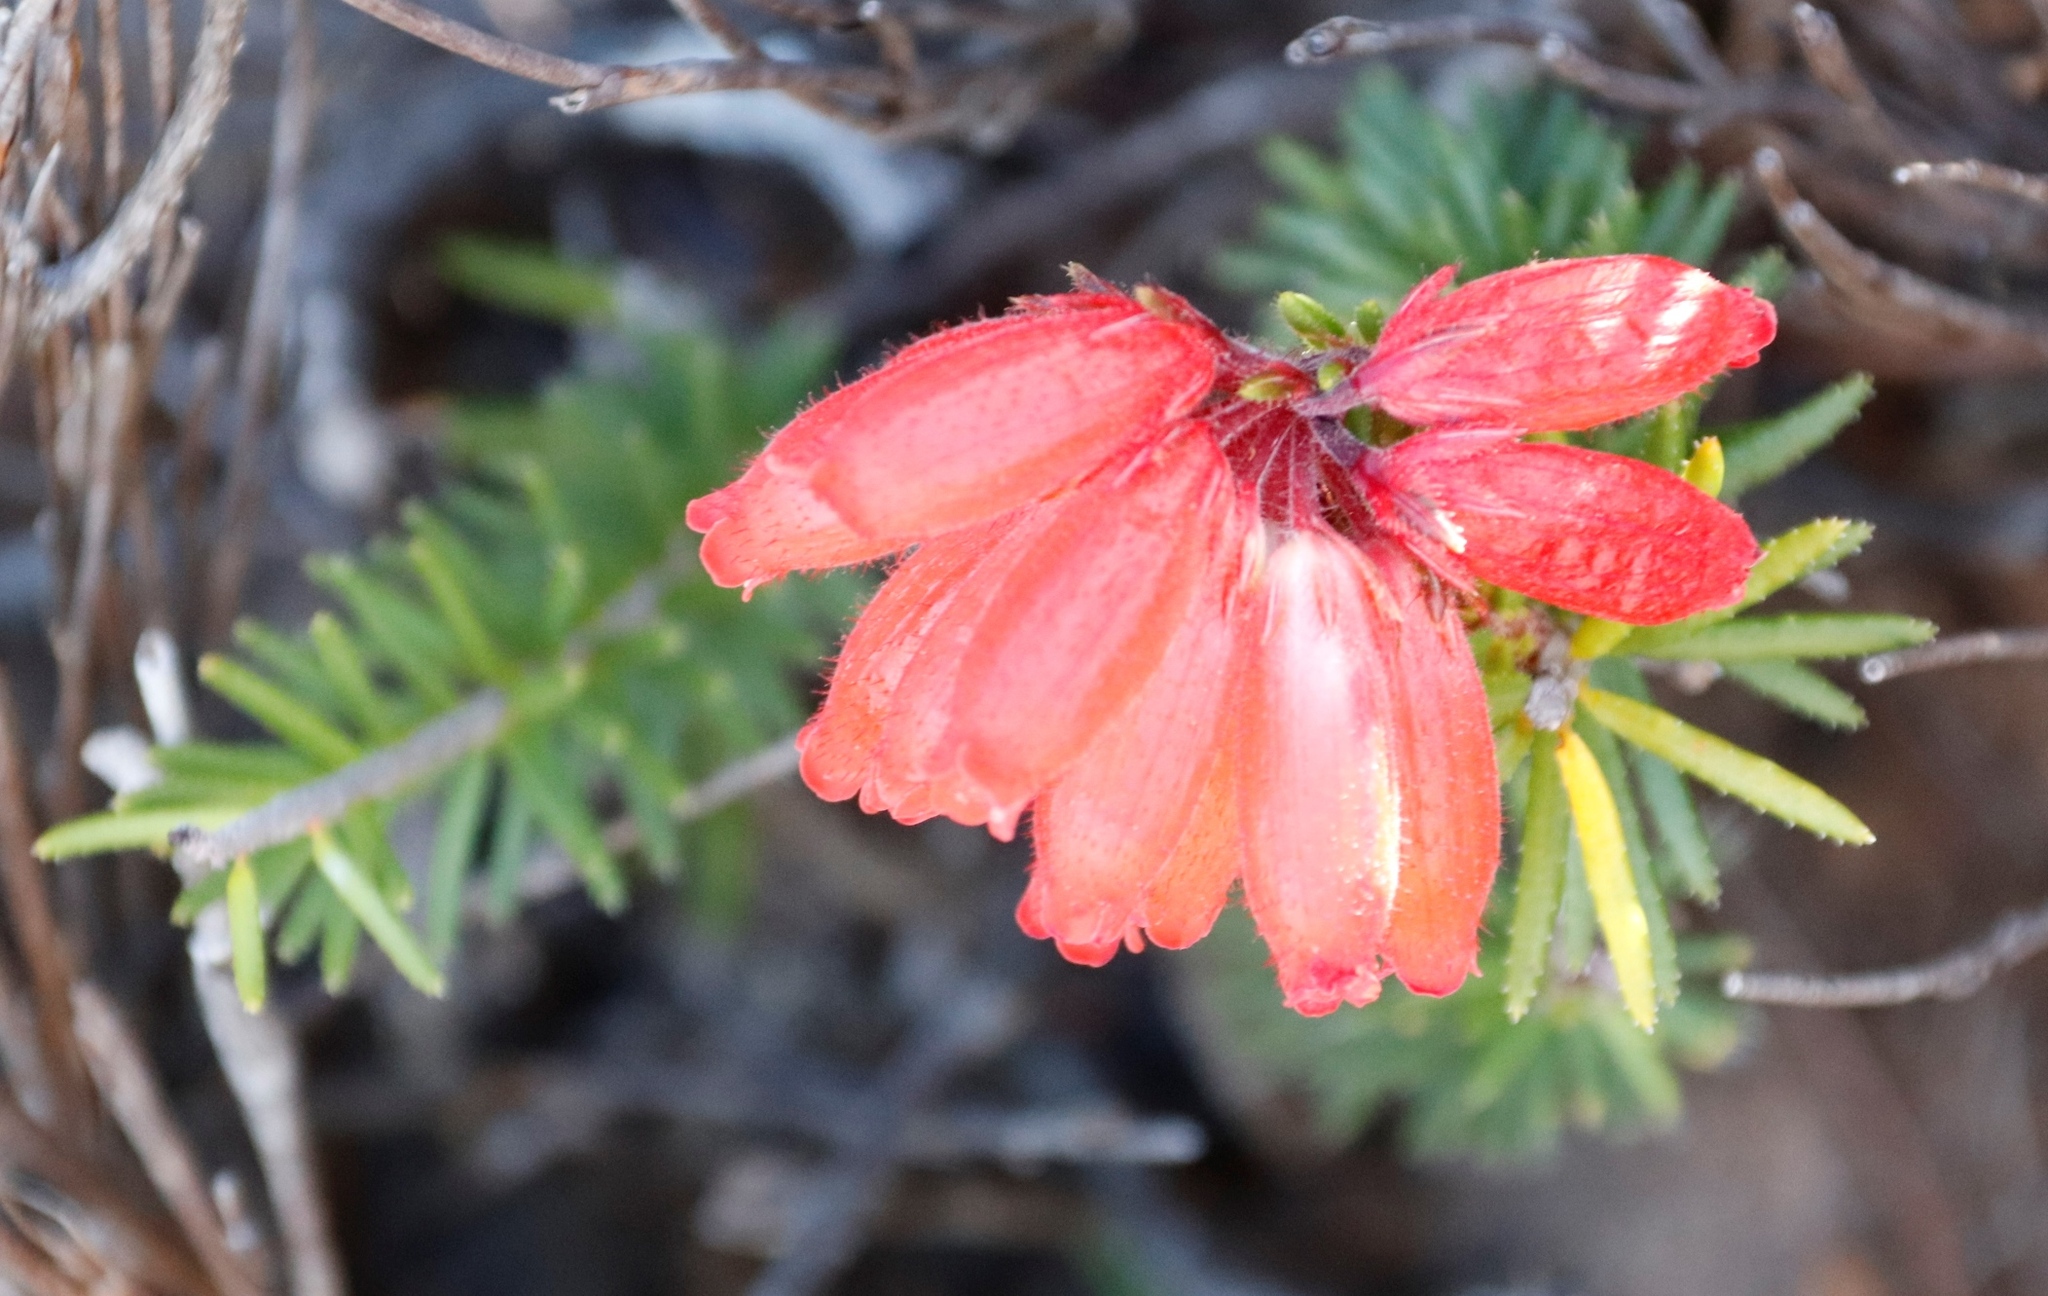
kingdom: Plantae
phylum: Tracheophyta
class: Magnoliopsida
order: Ericales
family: Ericaceae
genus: Erica
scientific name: Erica cerinthoides
